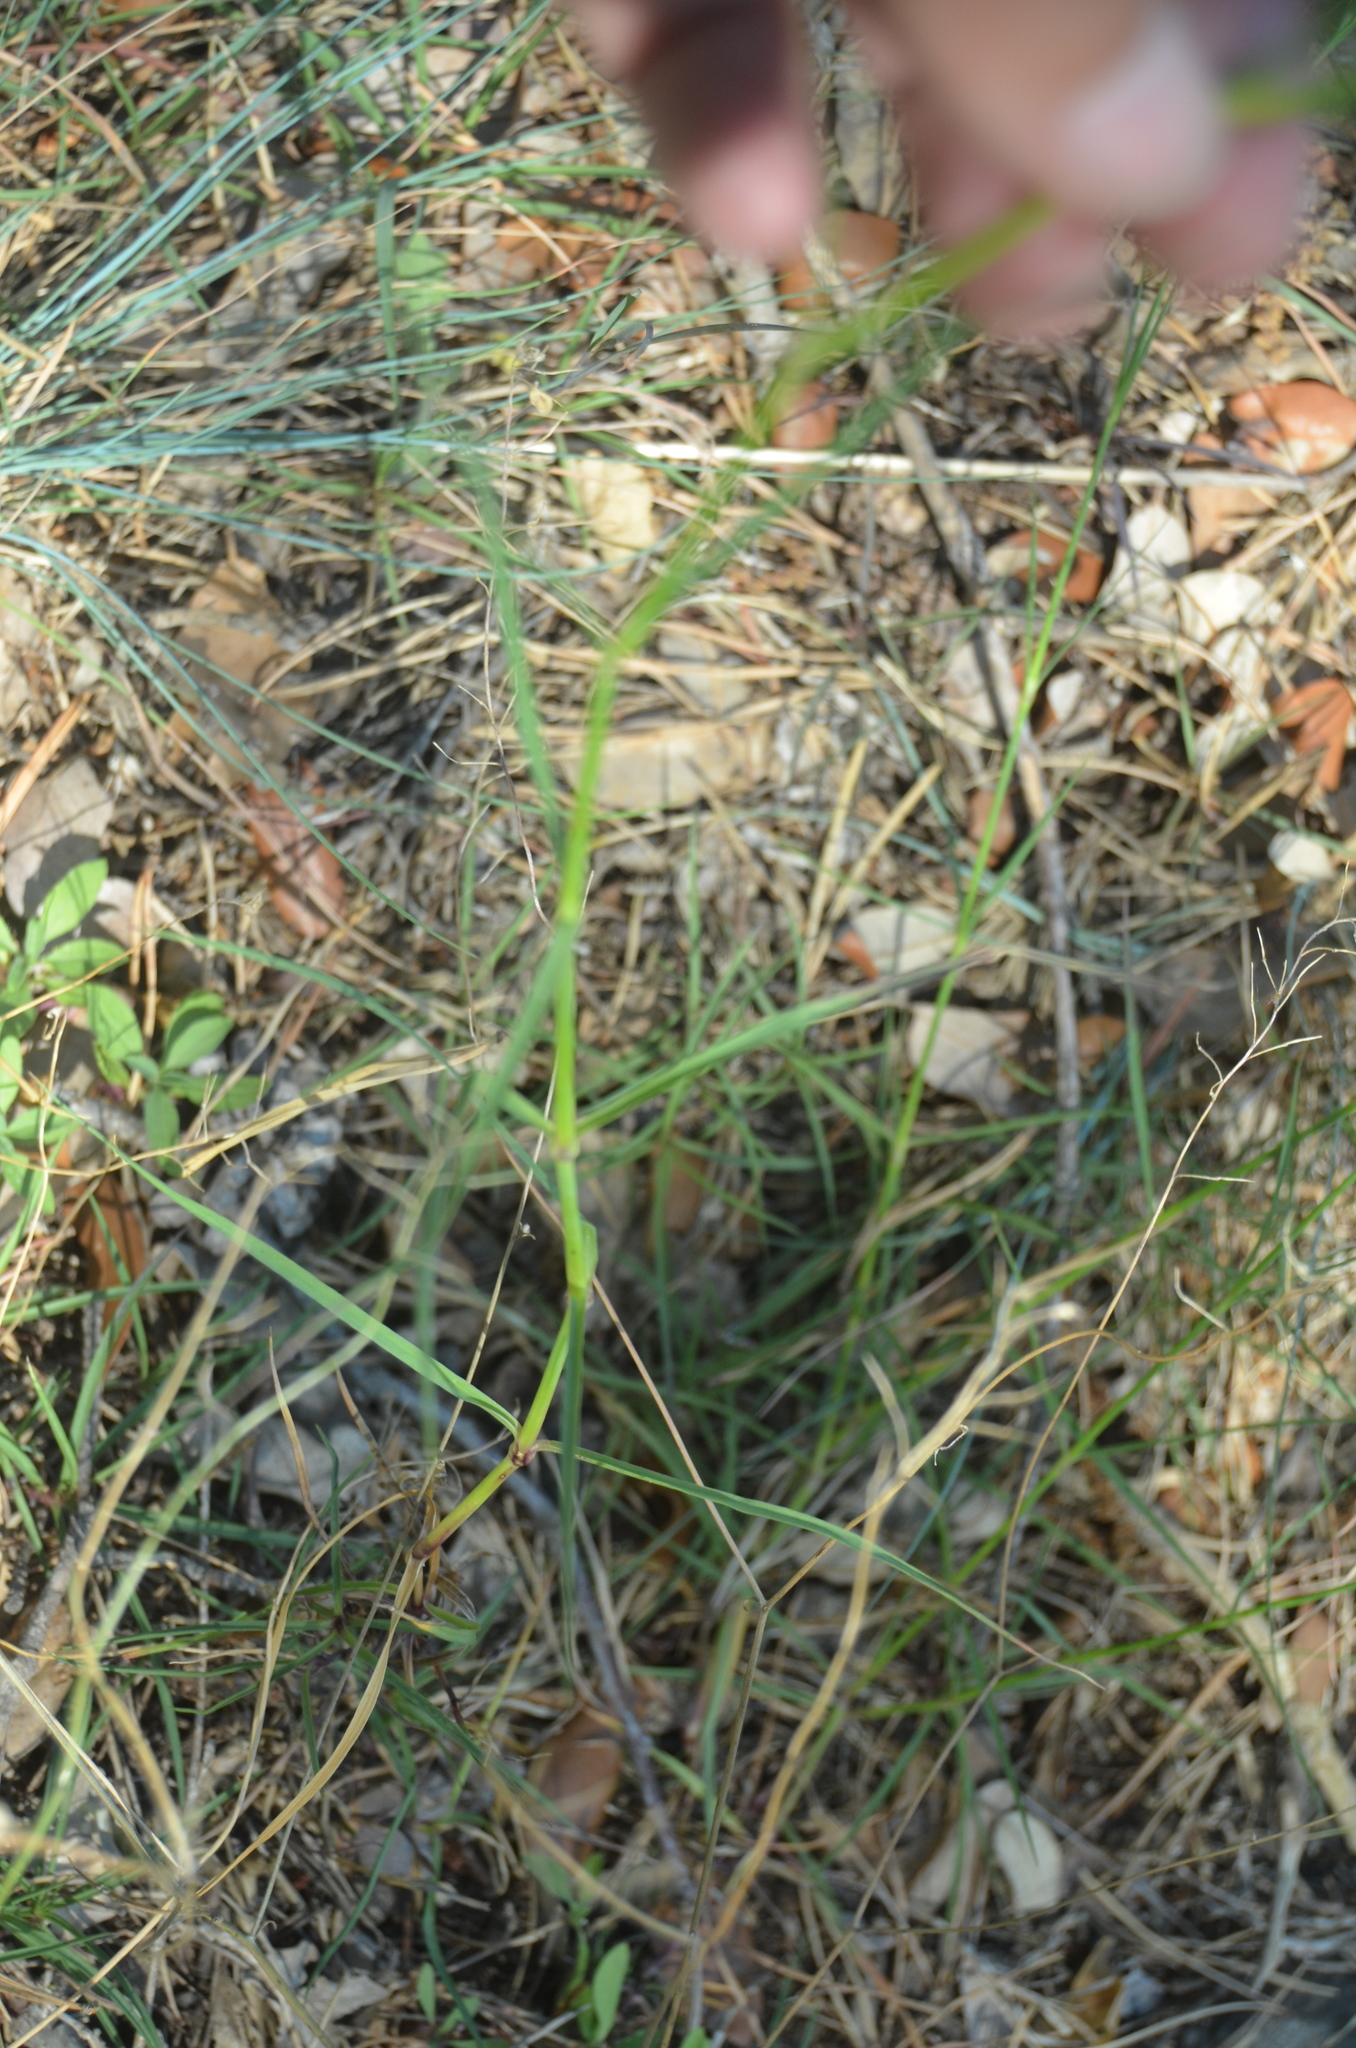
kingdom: Plantae
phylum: Tracheophyta
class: Magnoliopsida
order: Caryophyllales
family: Caryophyllaceae
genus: Dianthus
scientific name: Dianthus hyssopifolius
